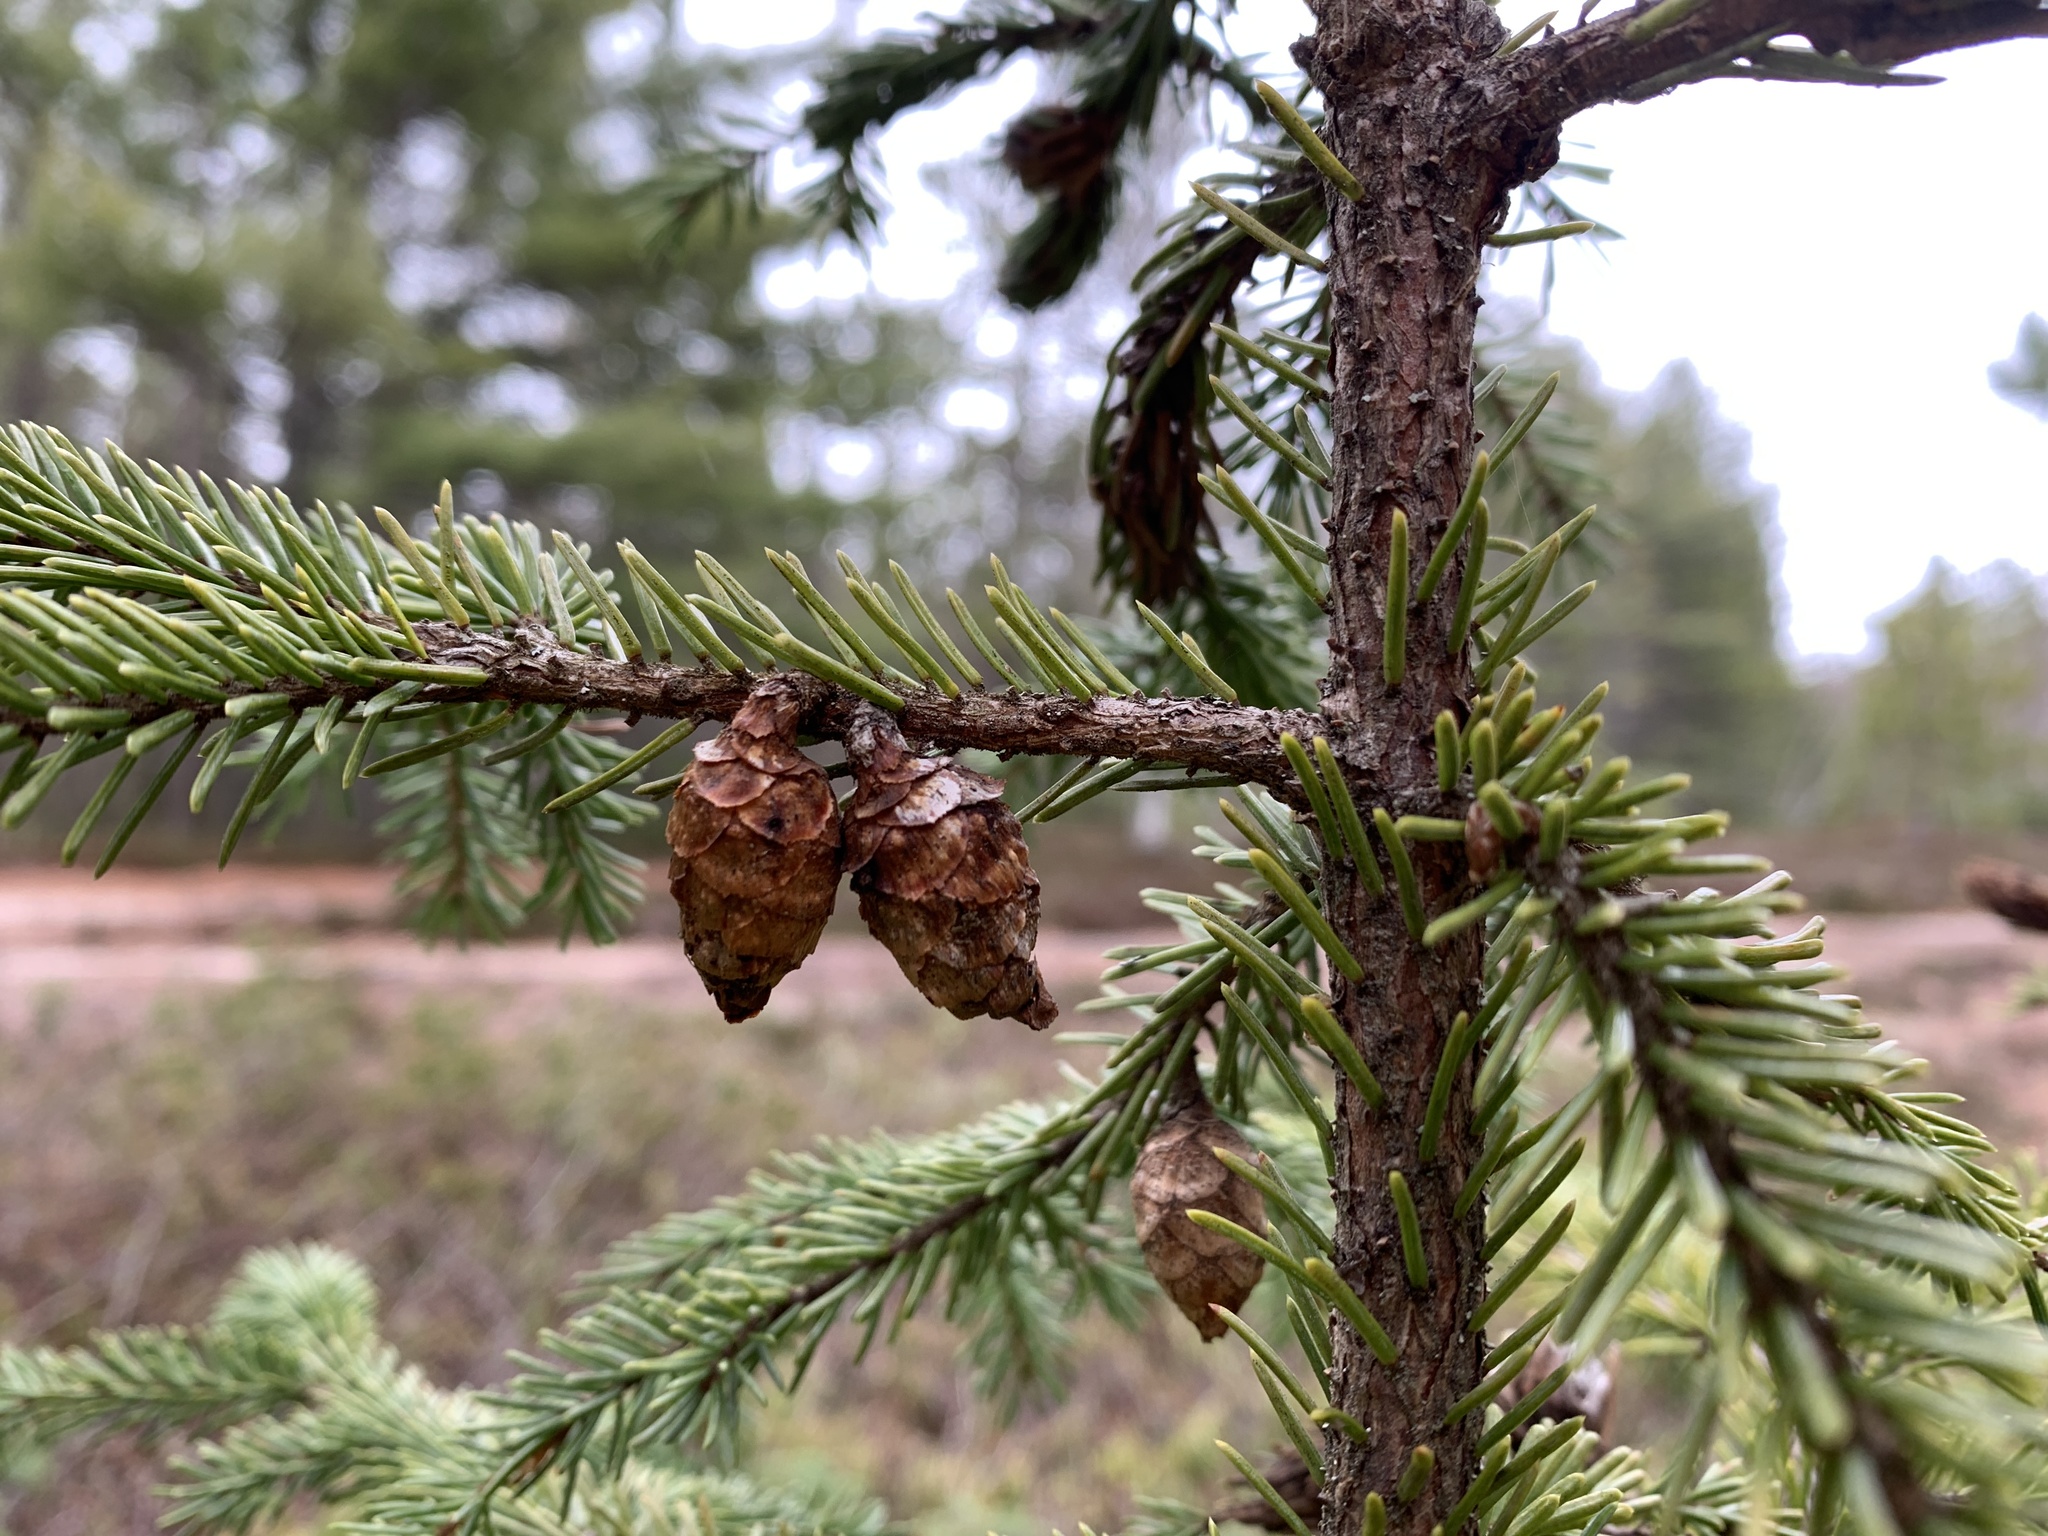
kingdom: Plantae
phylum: Tracheophyta
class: Pinopsida
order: Pinales
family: Pinaceae
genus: Picea
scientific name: Picea mariana
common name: Black spruce
